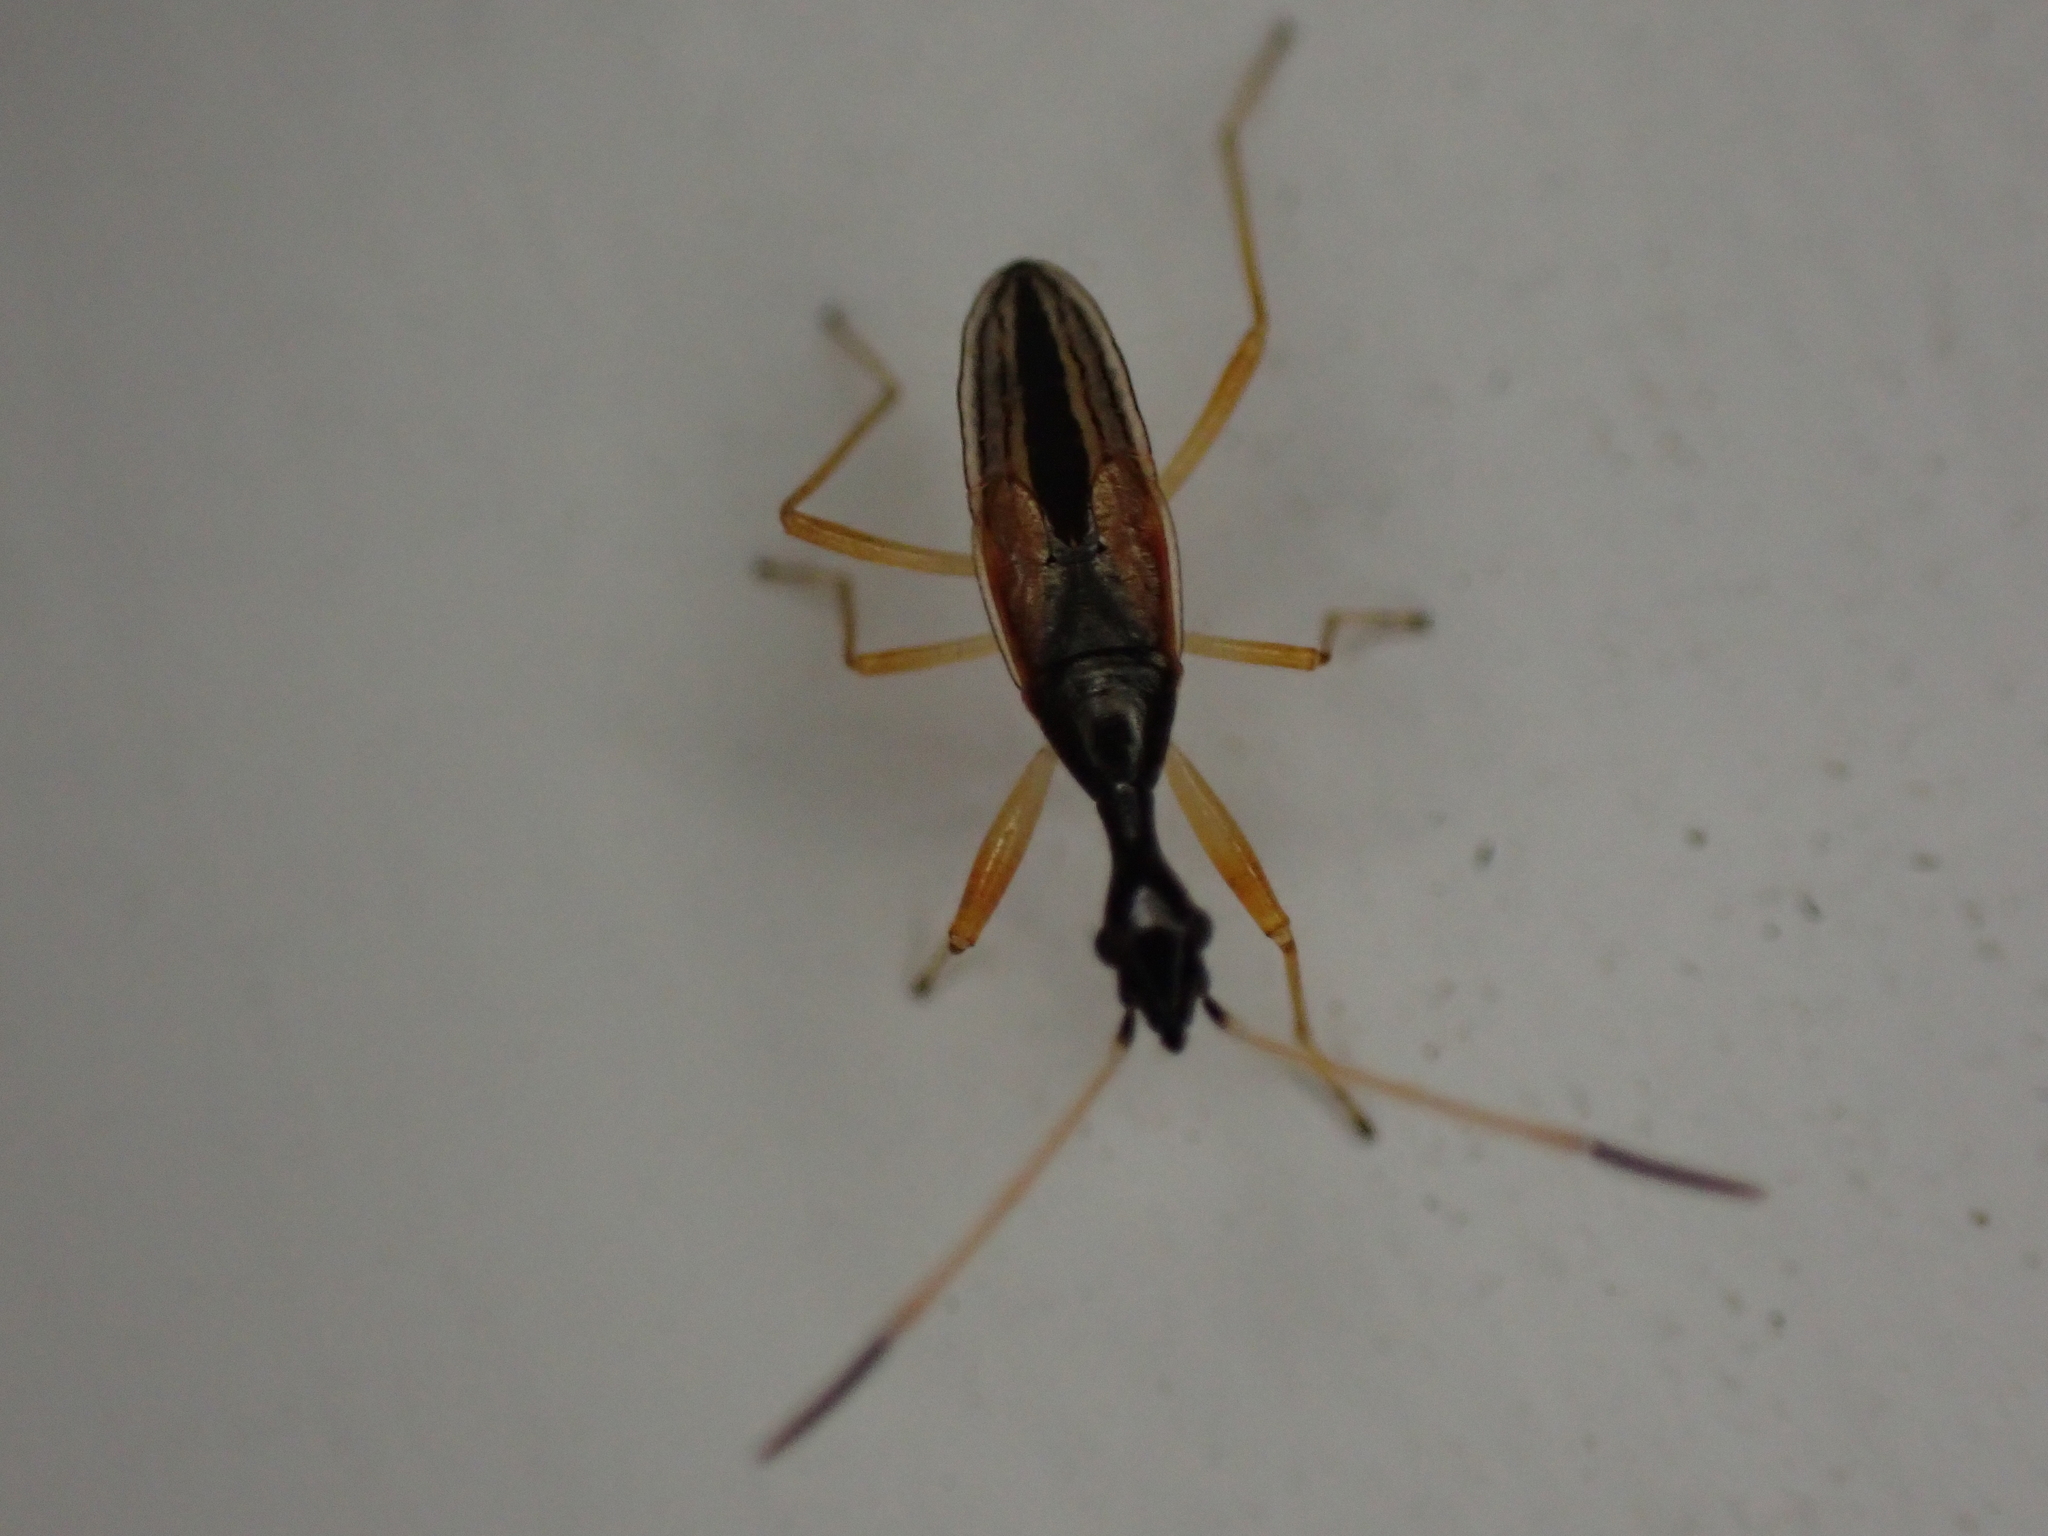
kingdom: Animalia
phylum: Arthropoda
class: Insecta
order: Hemiptera
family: Rhyparochromidae
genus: Myodocha
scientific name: Myodocha serripes
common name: Long-necked seed bug
